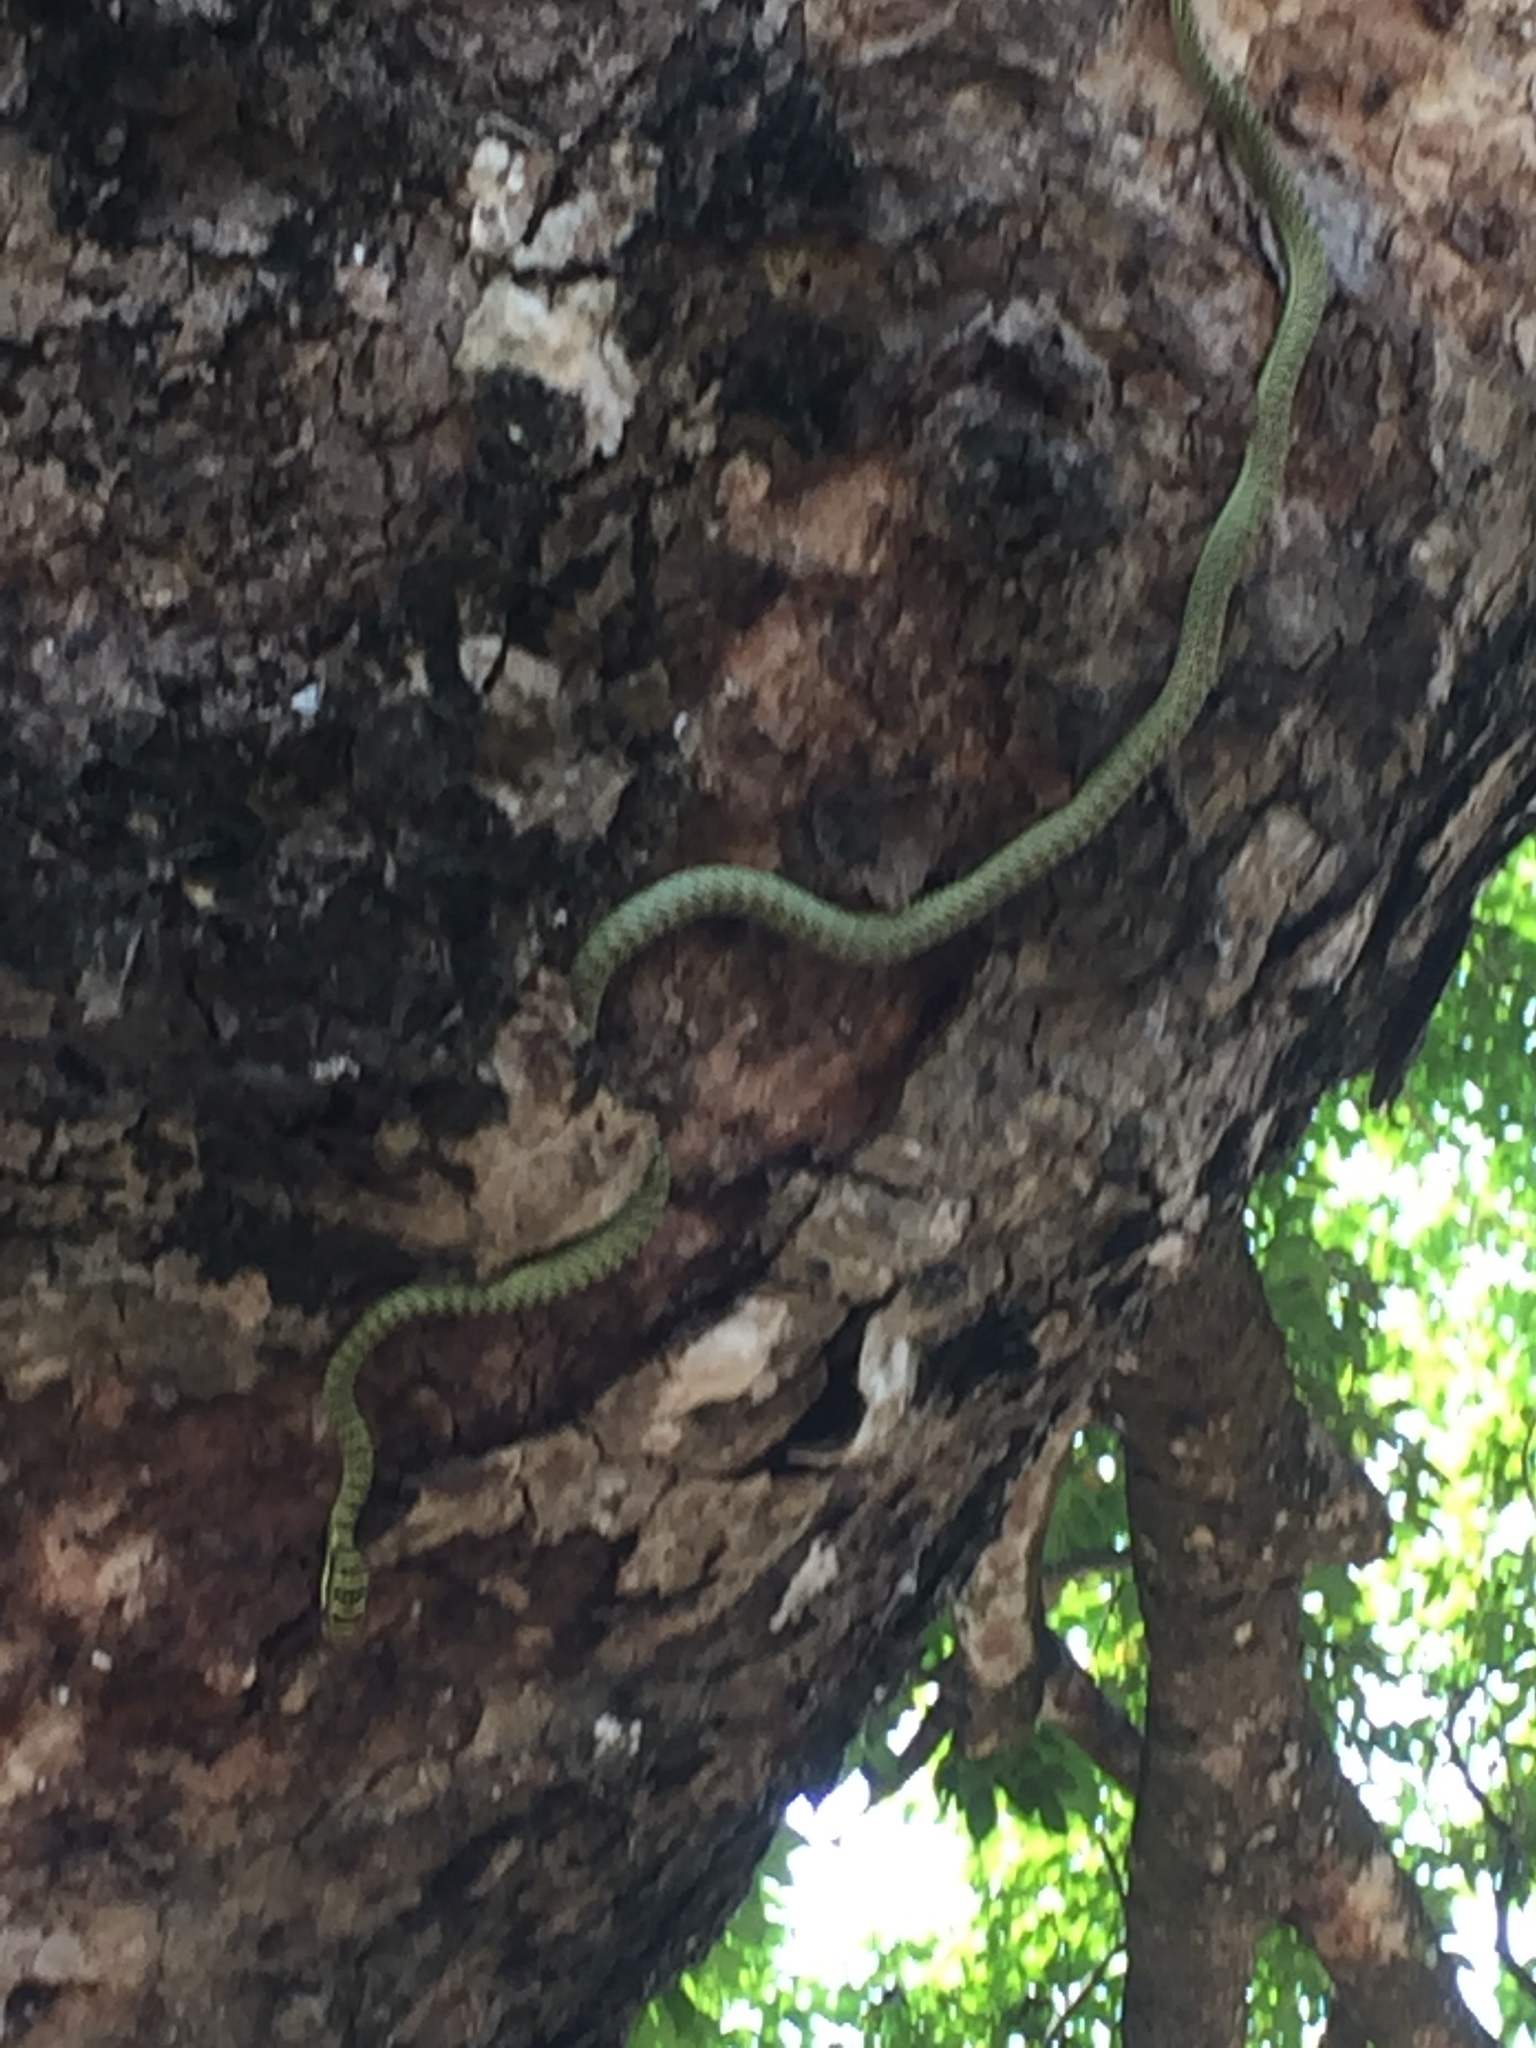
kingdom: Animalia
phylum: Chordata
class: Squamata
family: Colubridae
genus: Chrysopelea
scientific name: Chrysopelea ornata
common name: Golden flying snake
